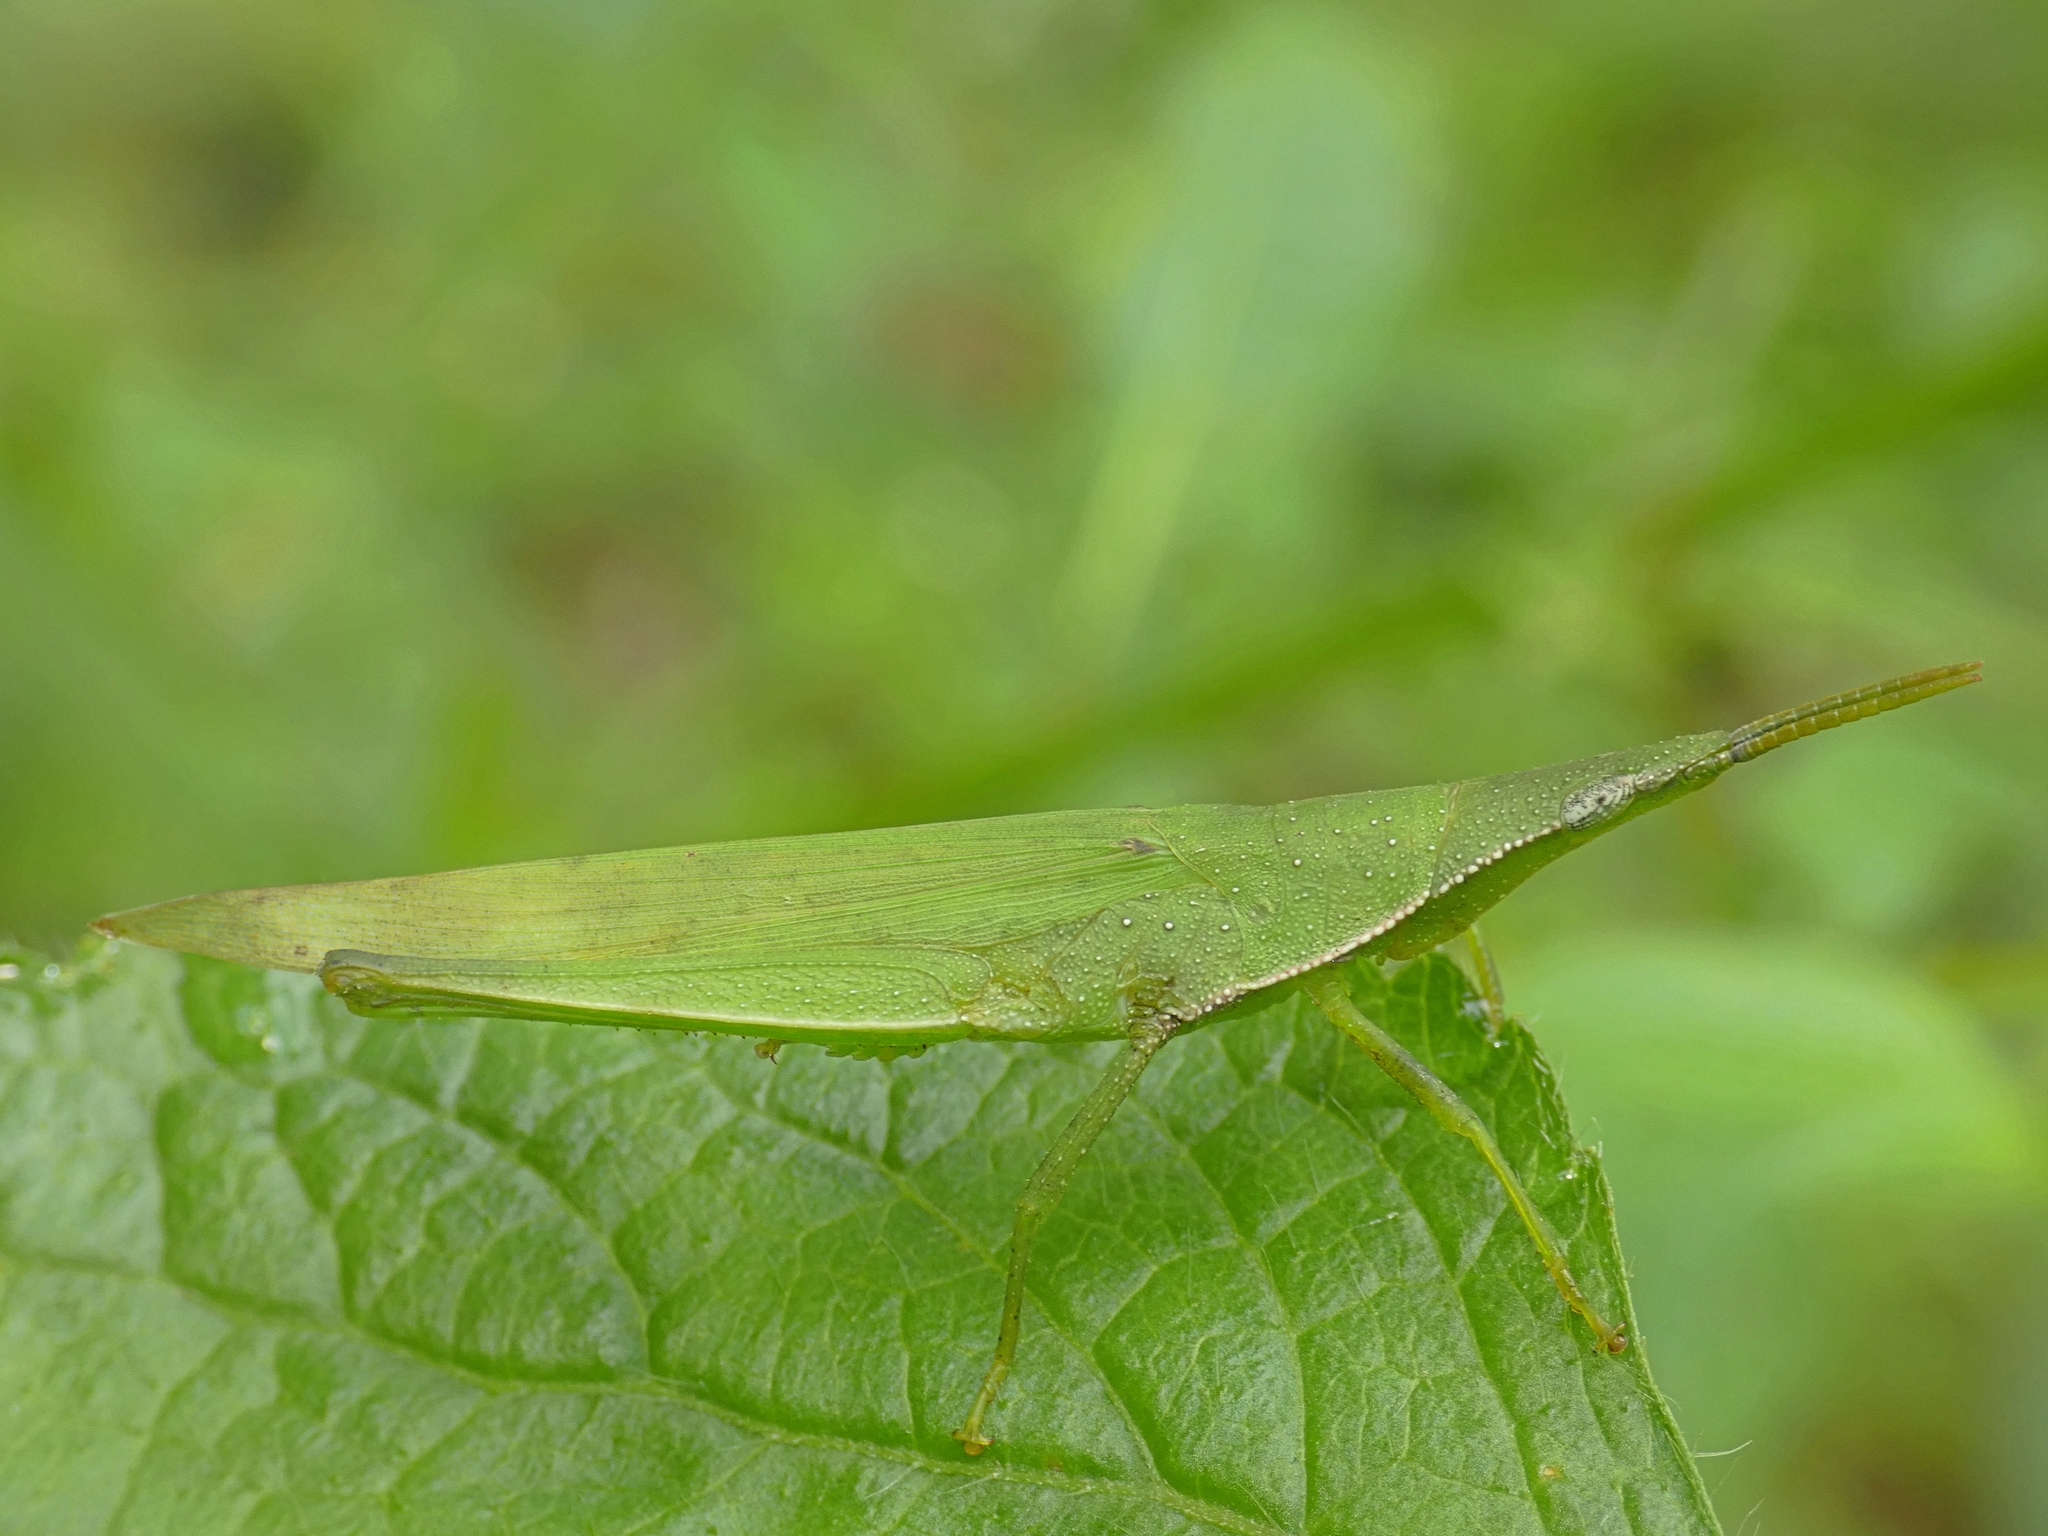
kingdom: Animalia
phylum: Arthropoda
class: Insecta
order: Orthoptera
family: Pyrgomorphidae
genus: Atractomorpha
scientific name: Atractomorpha similis
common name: Northern grass pyrgomorph
